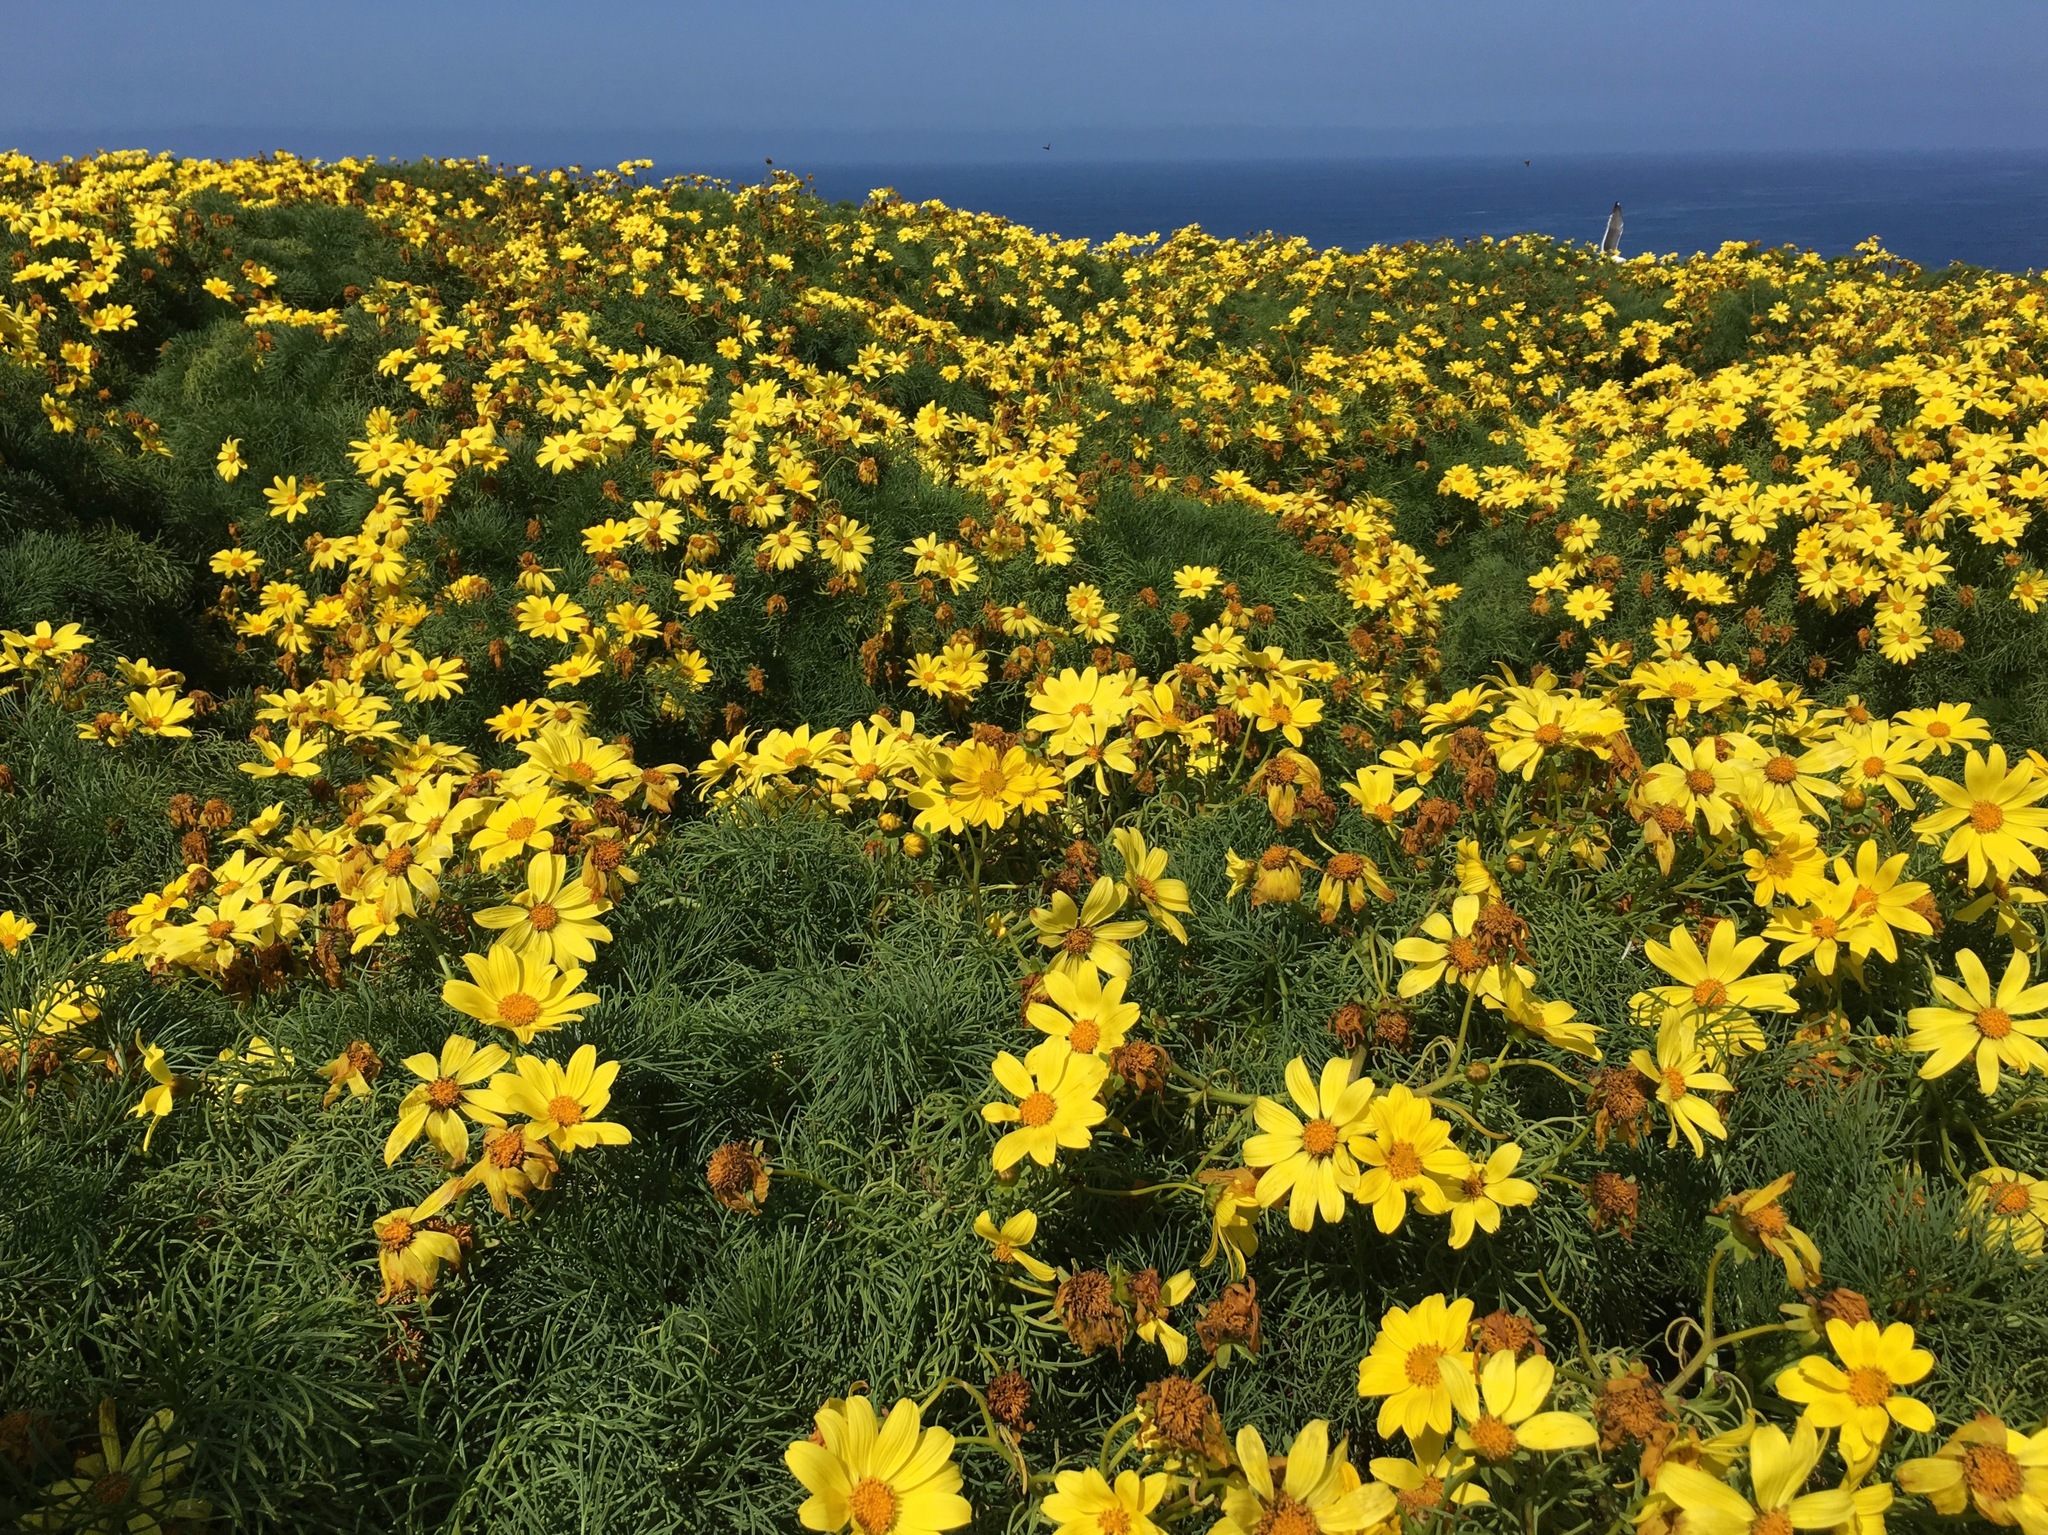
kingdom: Plantae
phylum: Tracheophyta
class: Magnoliopsida
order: Asterales
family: Asteraceae
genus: Coreopsis
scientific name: Coreopsis gigantea
